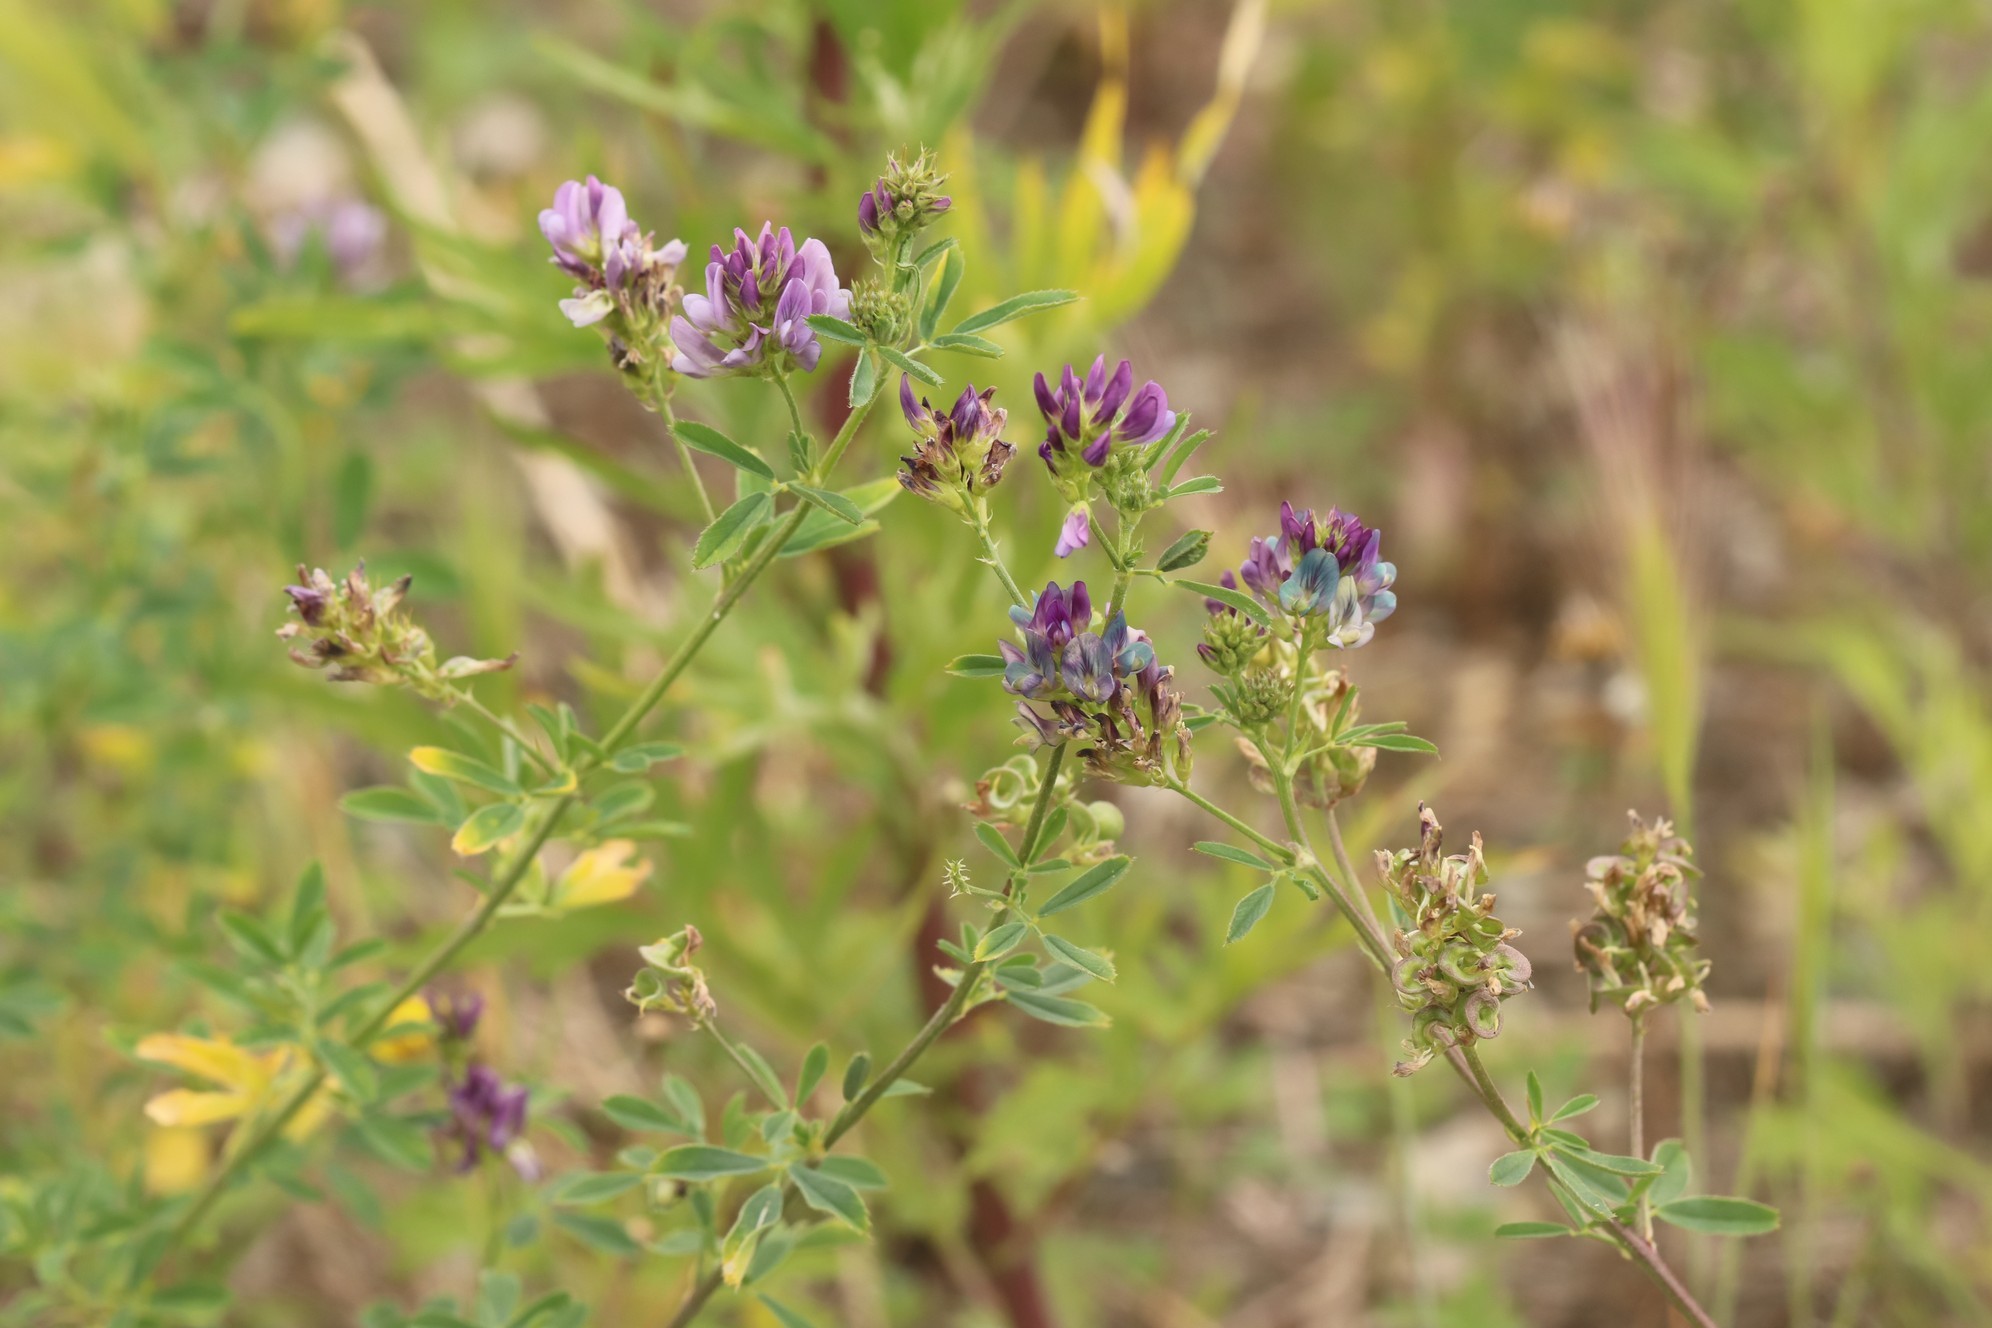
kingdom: Plantae
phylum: Tracheophyta
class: Magnoliopsida
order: Fabales
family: Fabaceae
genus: Medicago
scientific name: Medicago varia
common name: Sand lucerne
